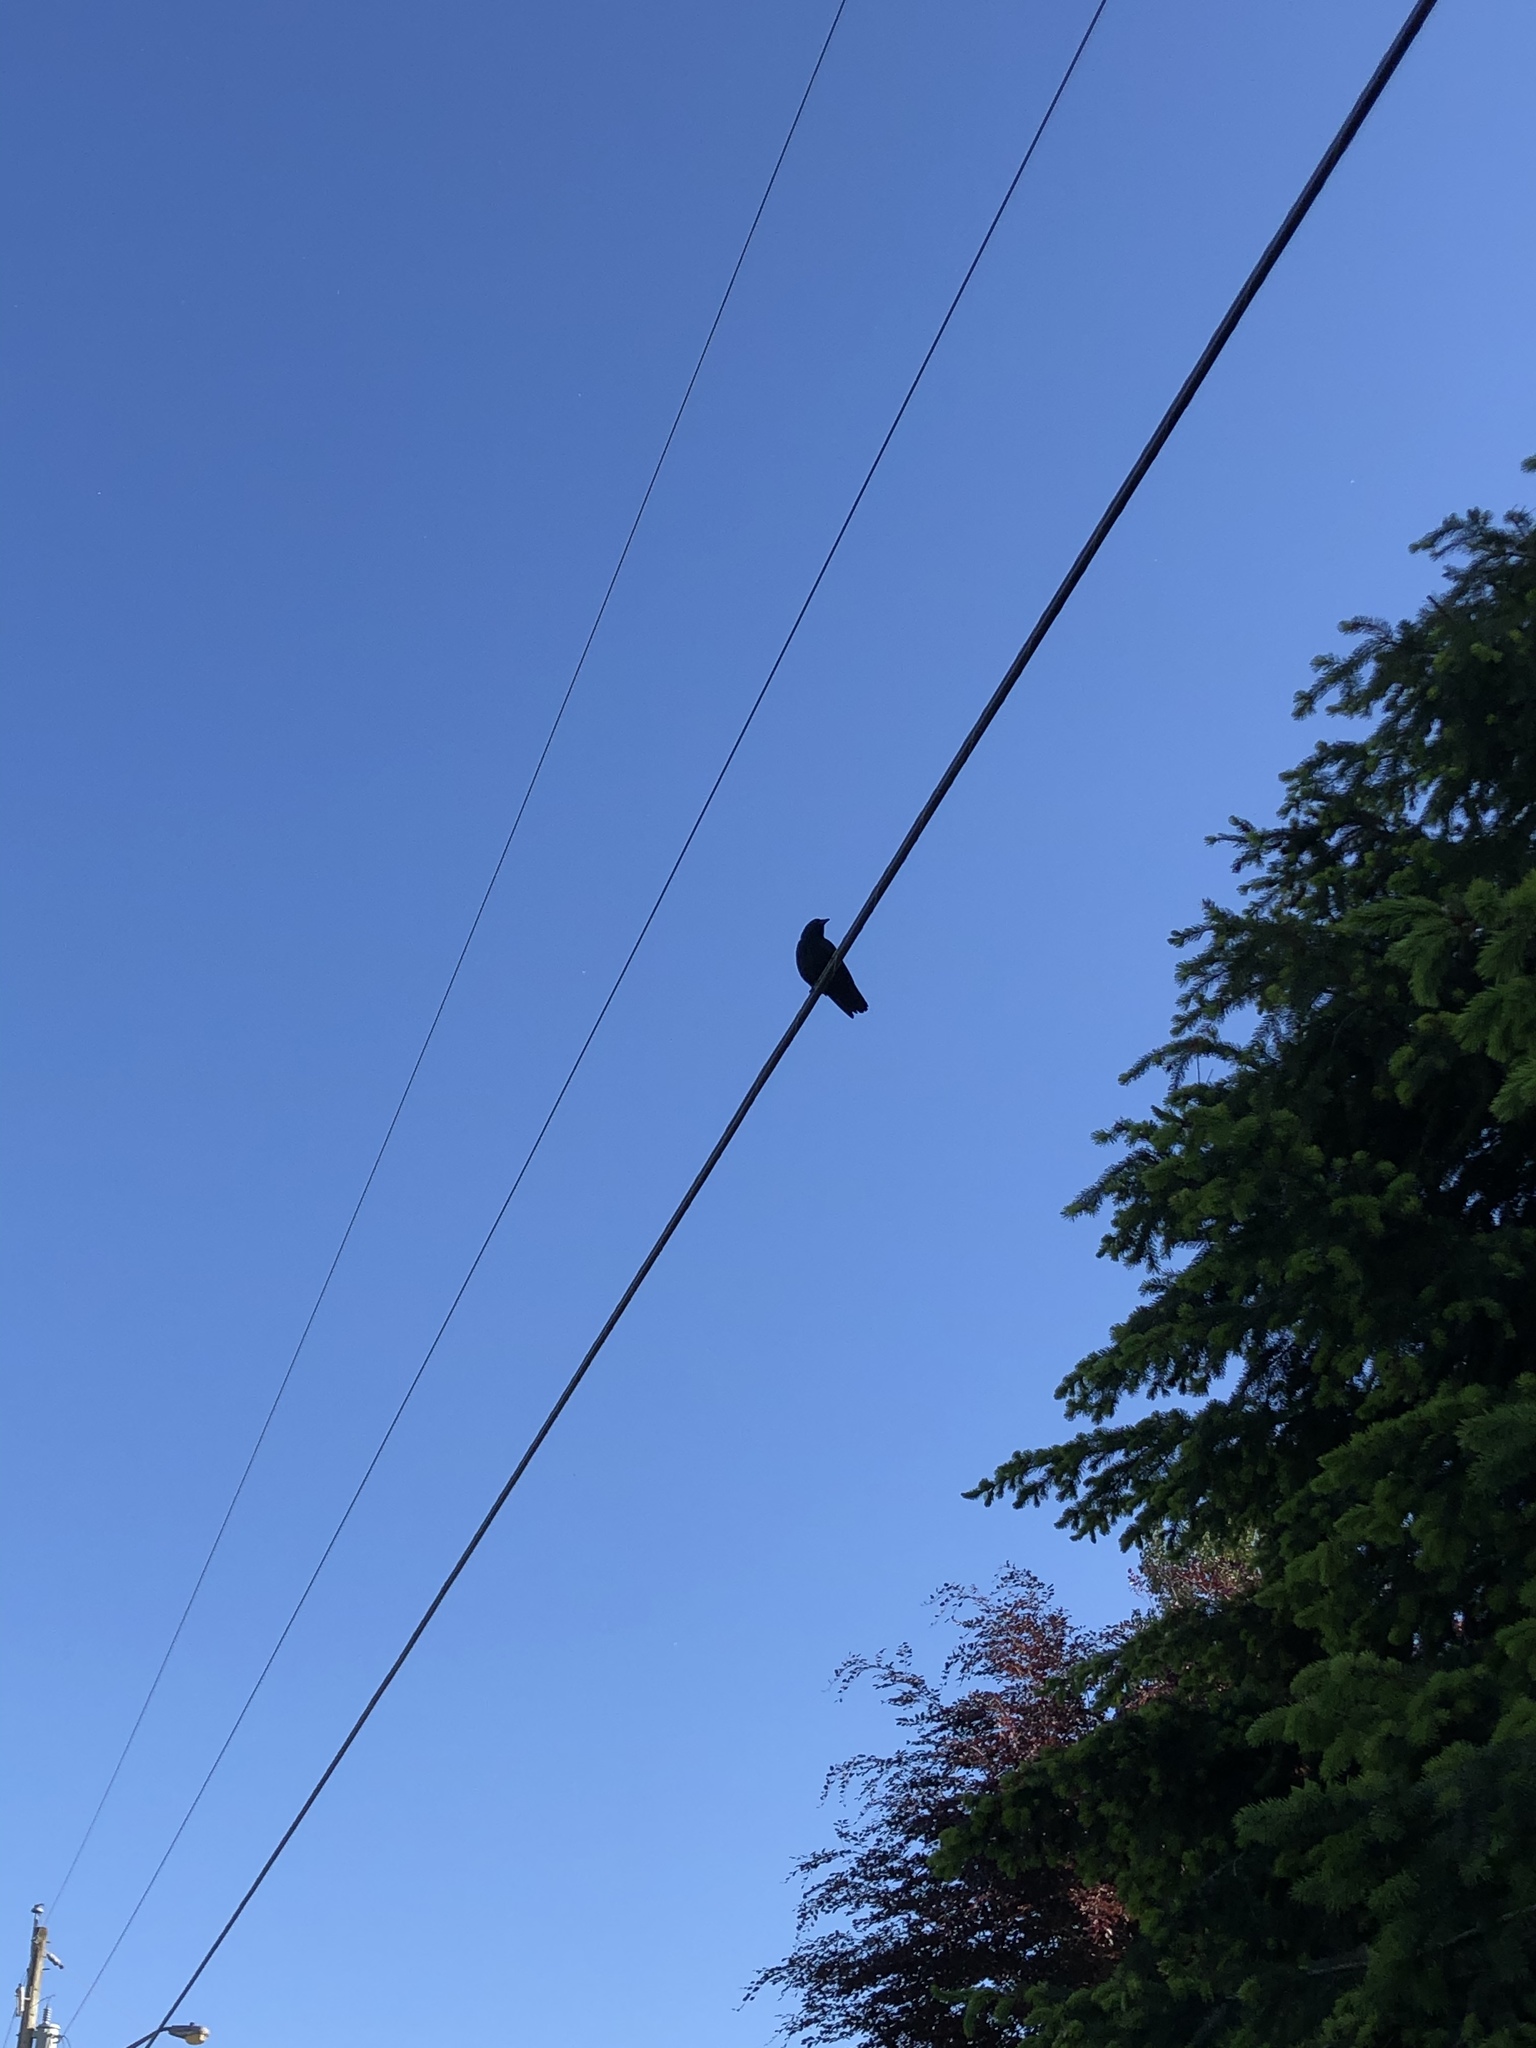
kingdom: Animalia
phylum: Chordata
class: Aves
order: Passeriformes
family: Corvidae
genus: Corvus
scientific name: Corvus brachyrhynchos
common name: American crow
